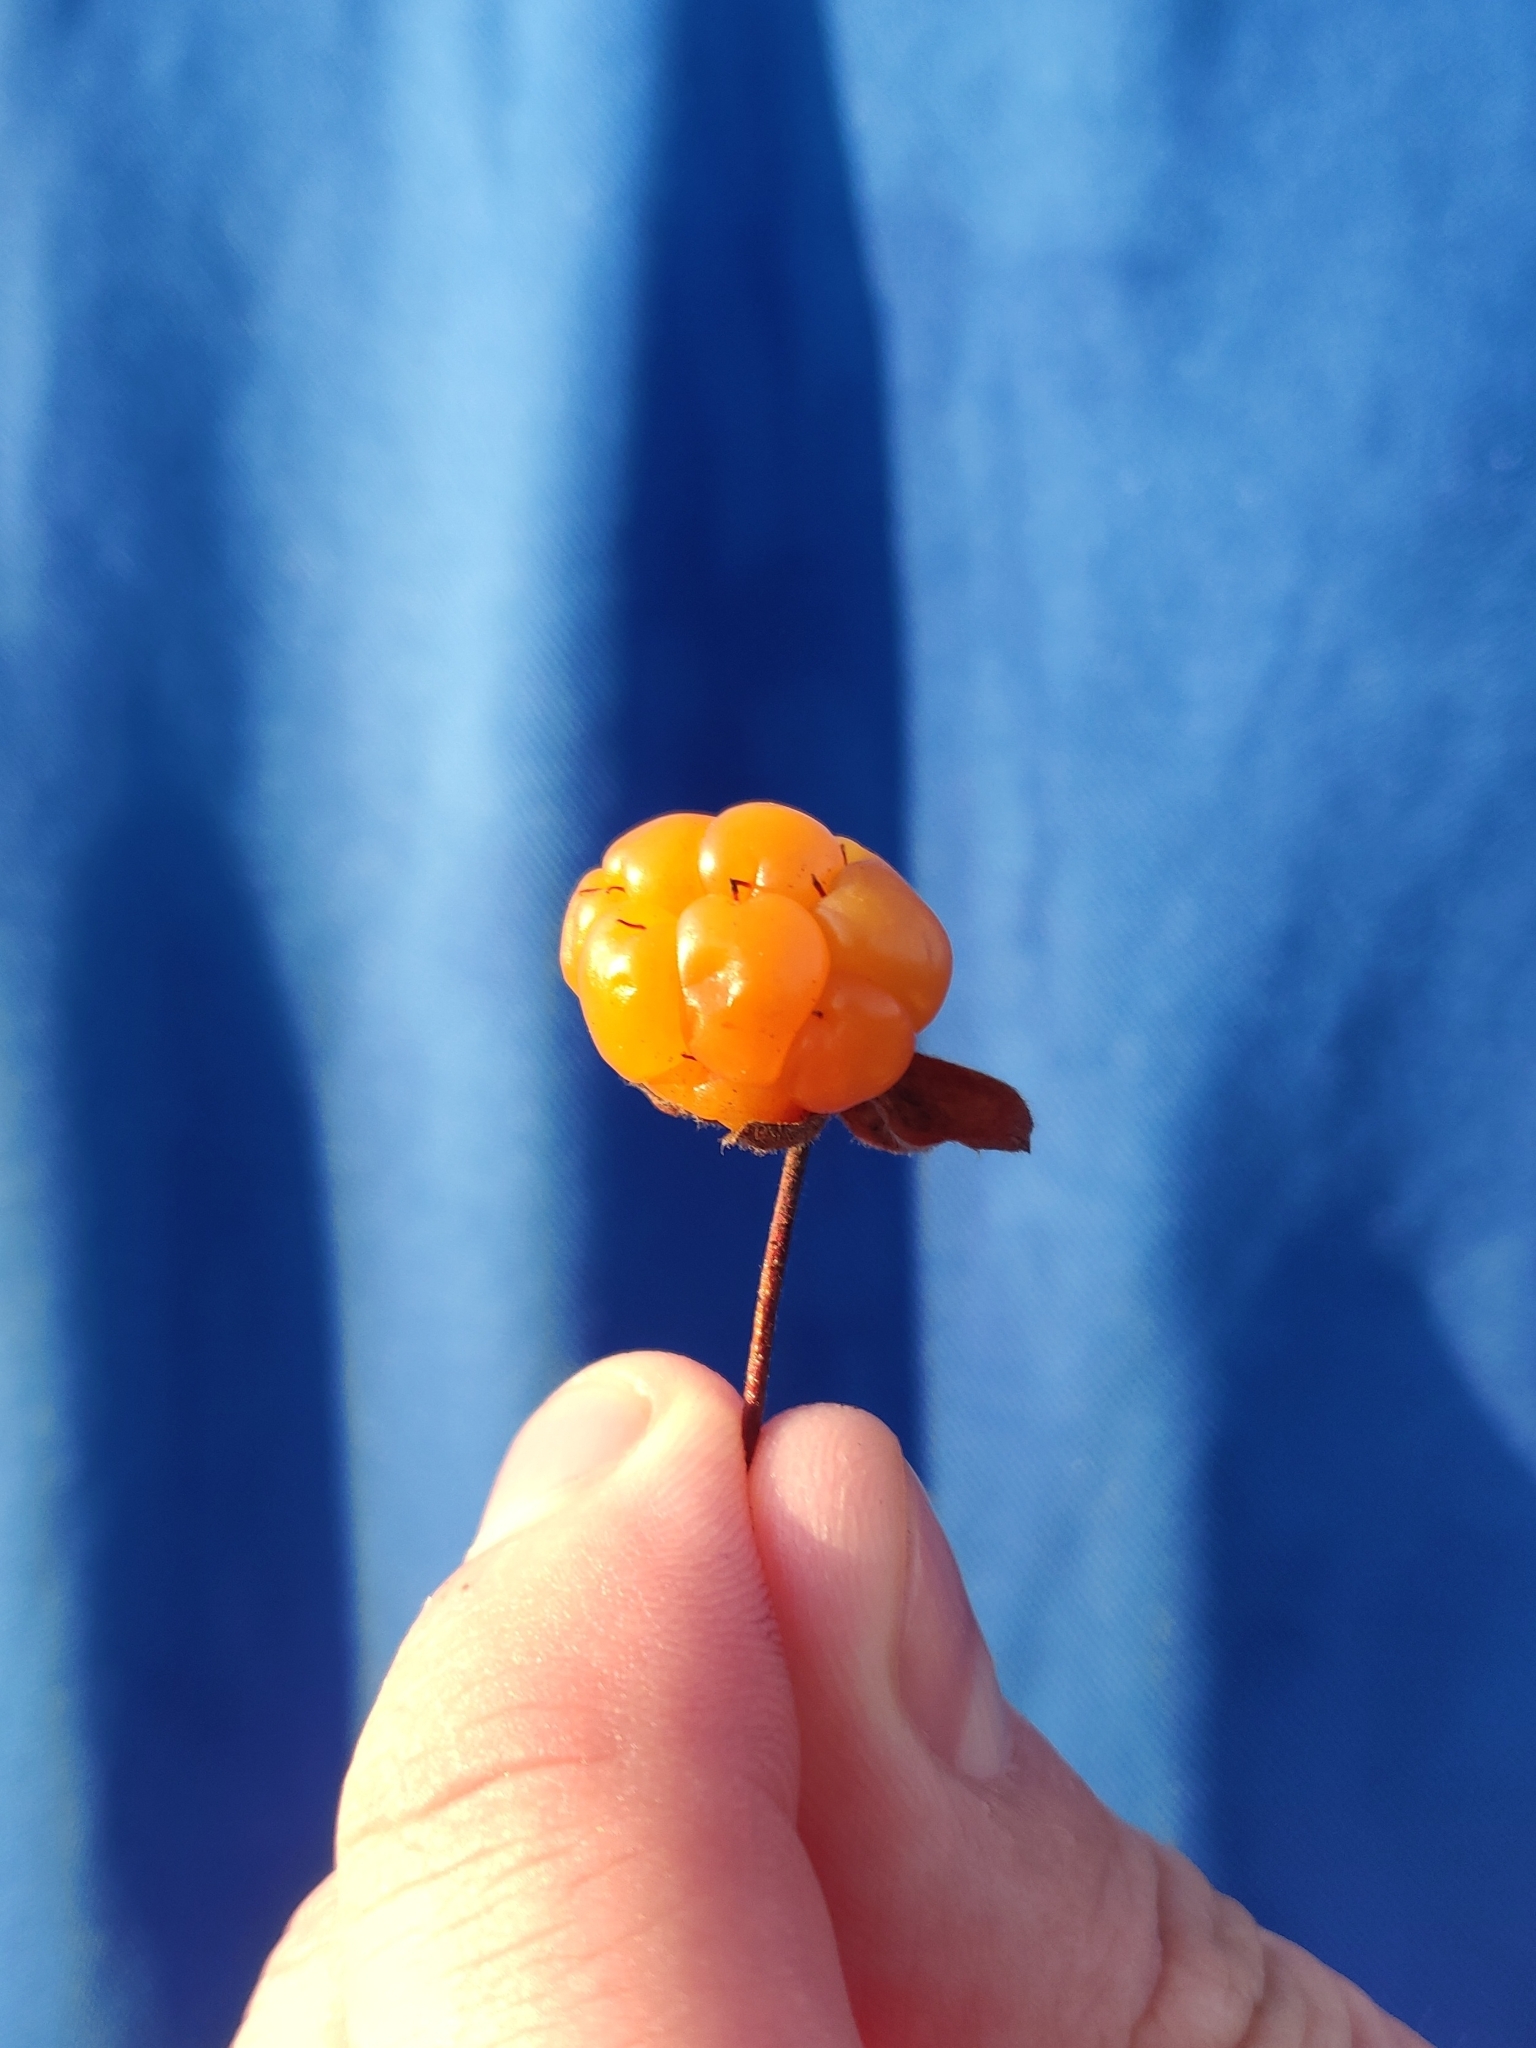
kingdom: Plantae
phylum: Tracheophyta
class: Magnoliopsida
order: Rosales
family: Rosaceae
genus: Rubus
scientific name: Rubus chamaemorus
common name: Cloudberry
